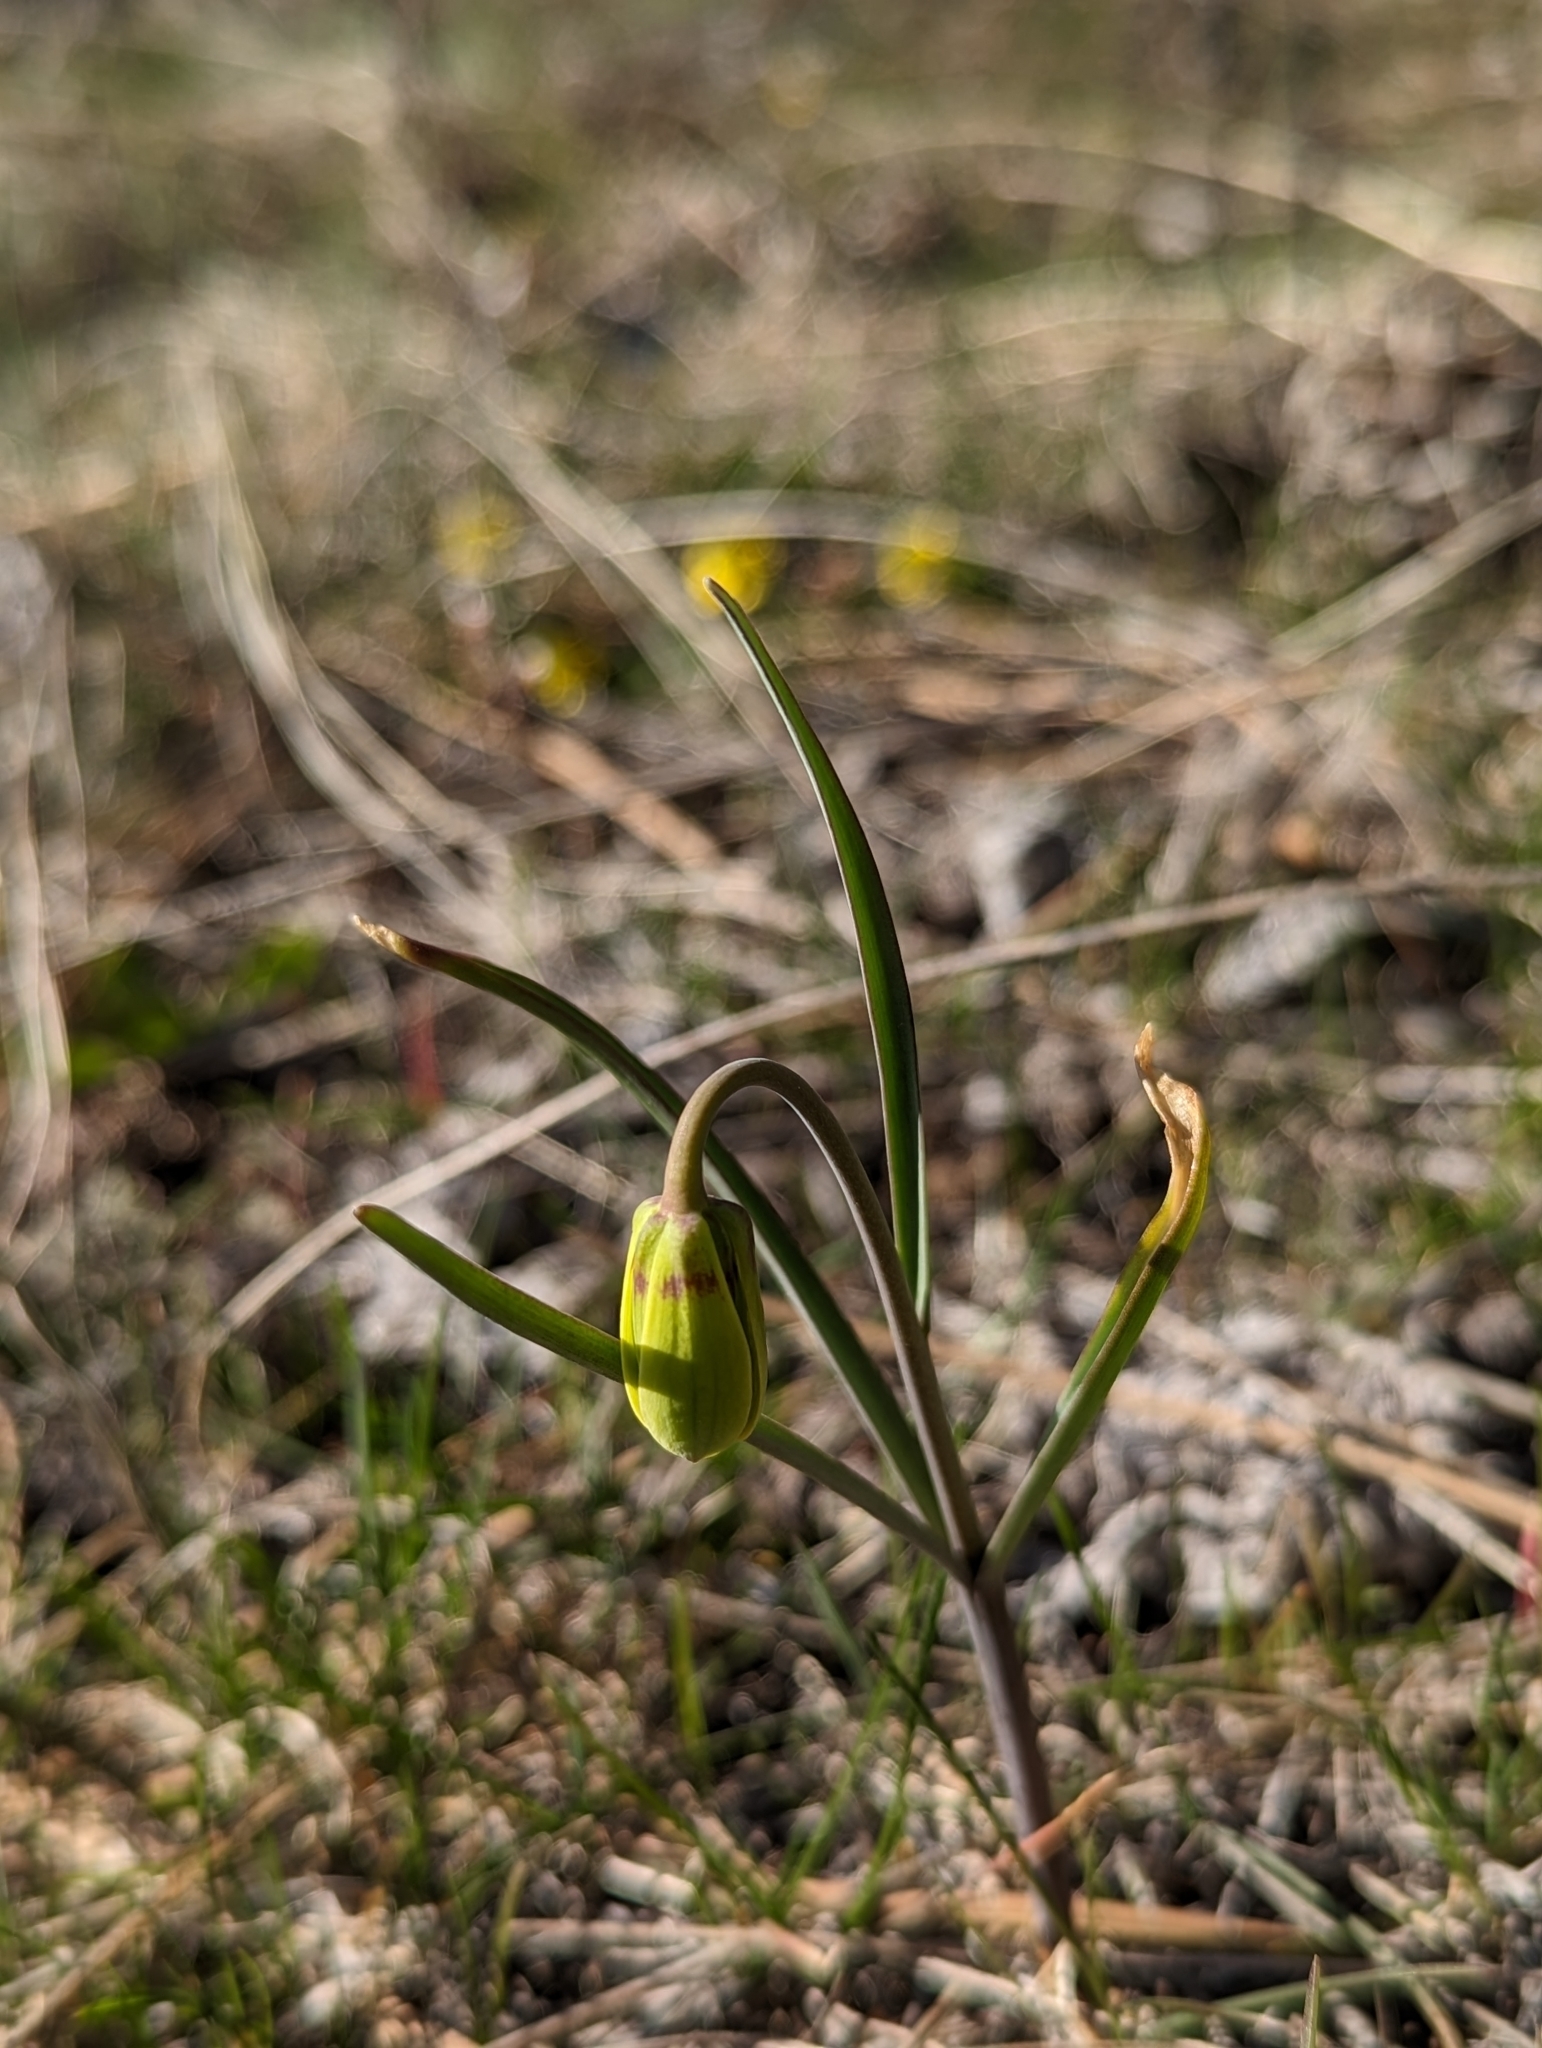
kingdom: Plantae
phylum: Tracheophyta
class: Liliopsida
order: Liliales
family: Liliaceae
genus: Fritillaria
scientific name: Fritillaria pudica
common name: Yellow fritillary
